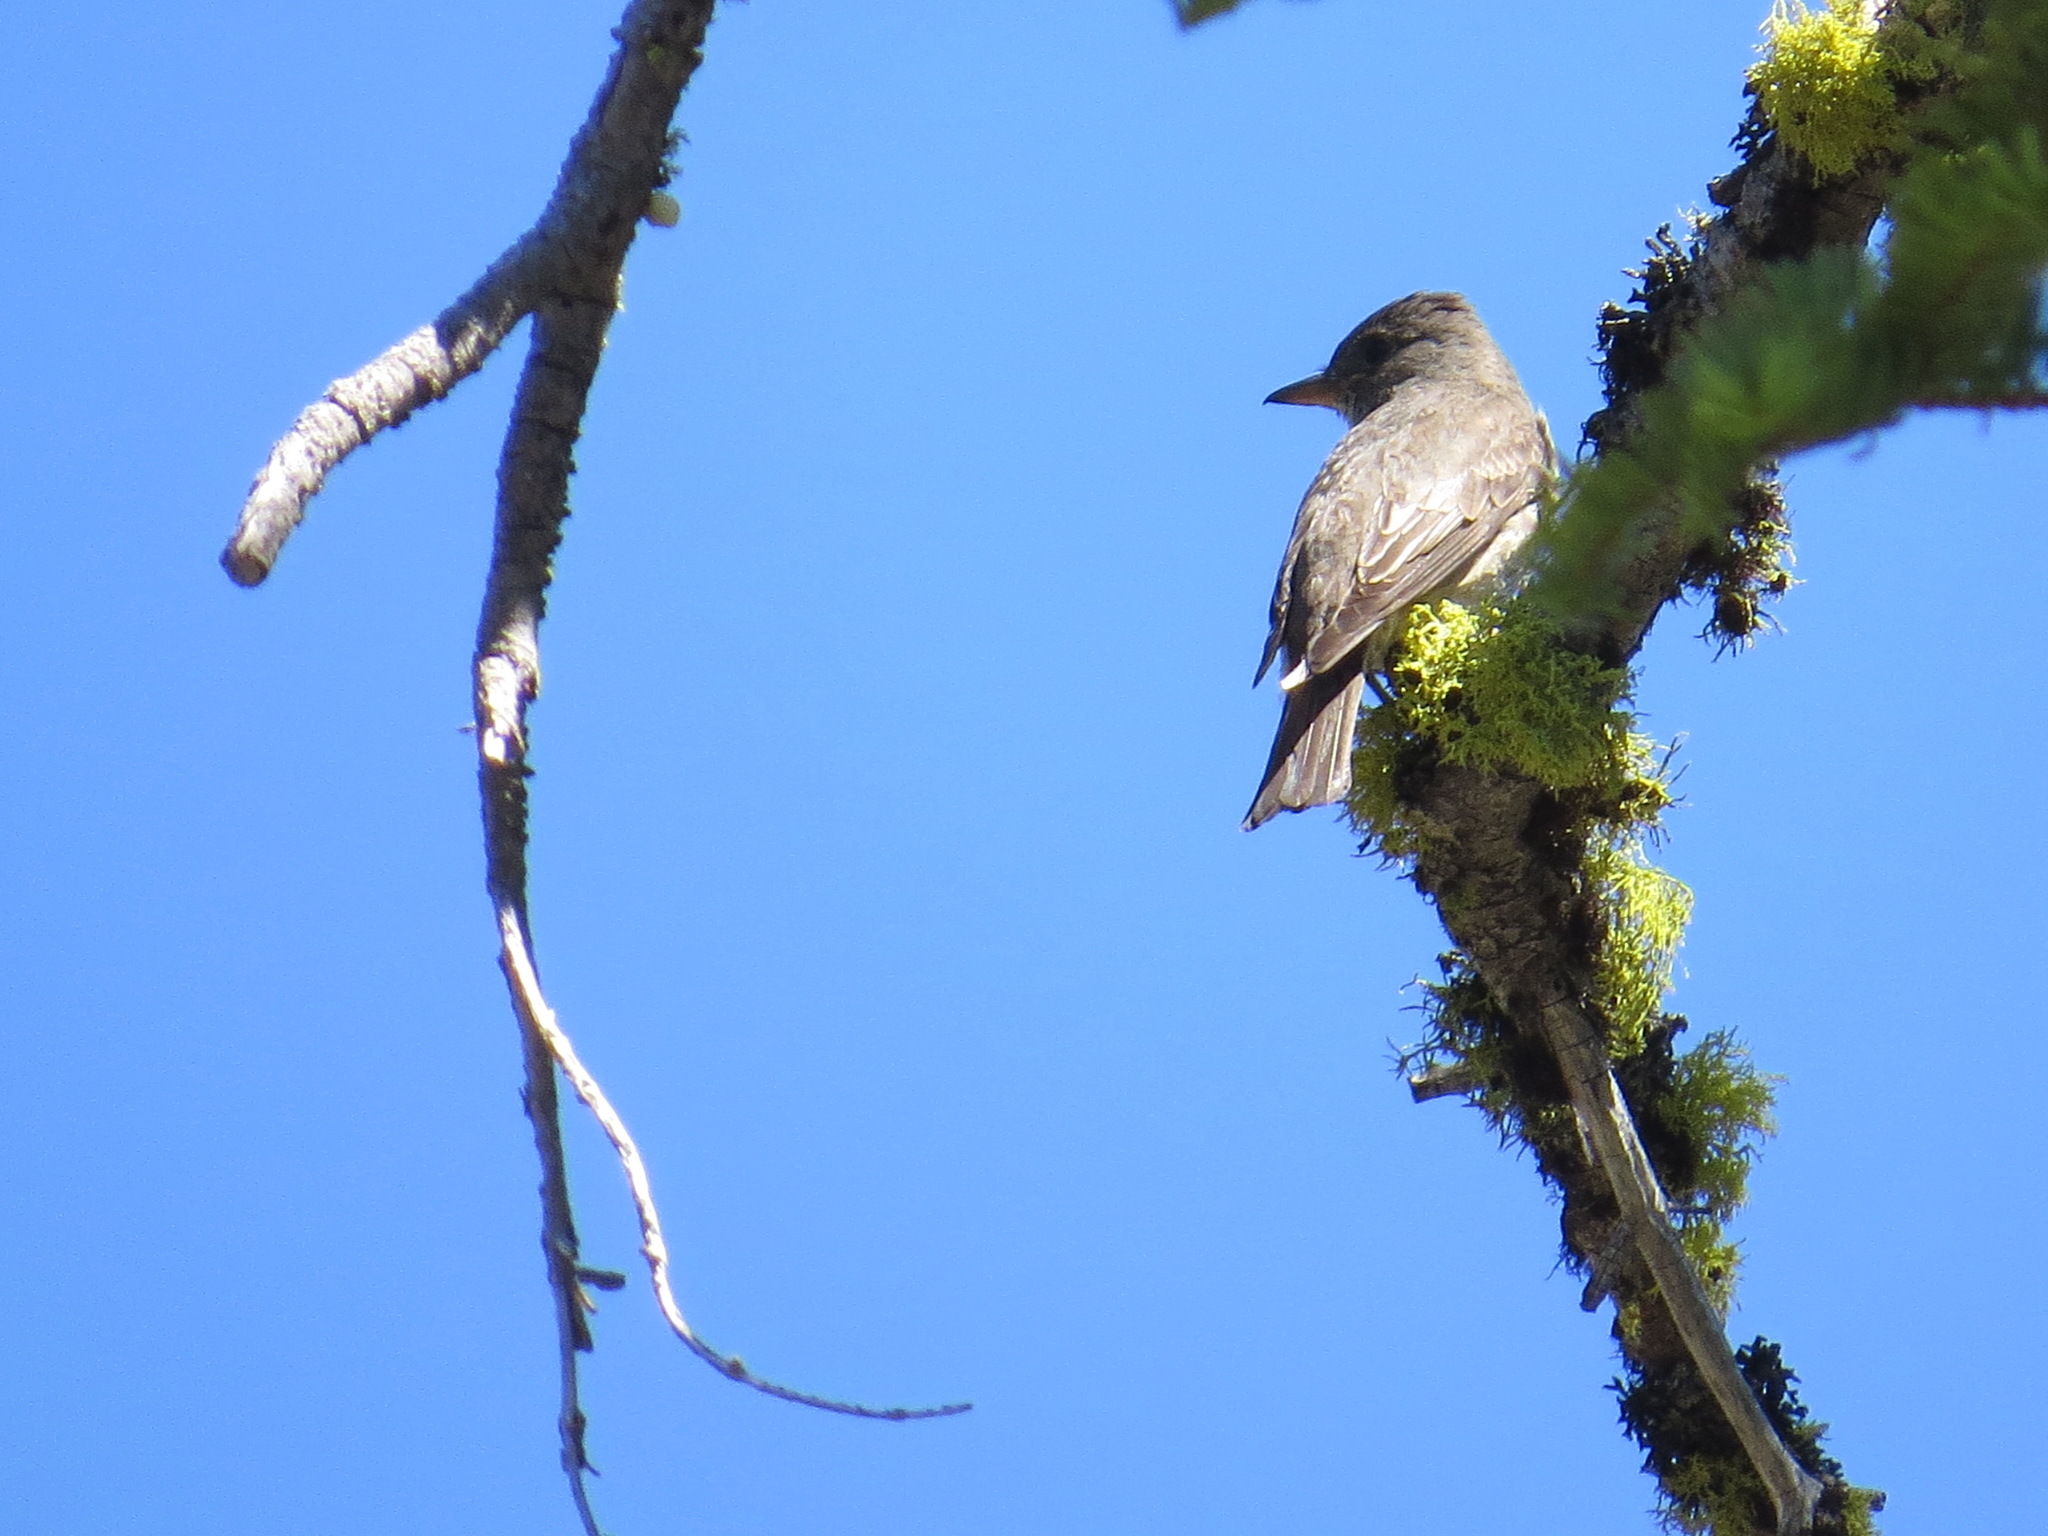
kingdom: Animalia
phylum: Chordata
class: Aves
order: Passeriformes
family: Tyrannidae
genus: Contopus
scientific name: Contopus cooperi
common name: Olive-sided flycatcher
